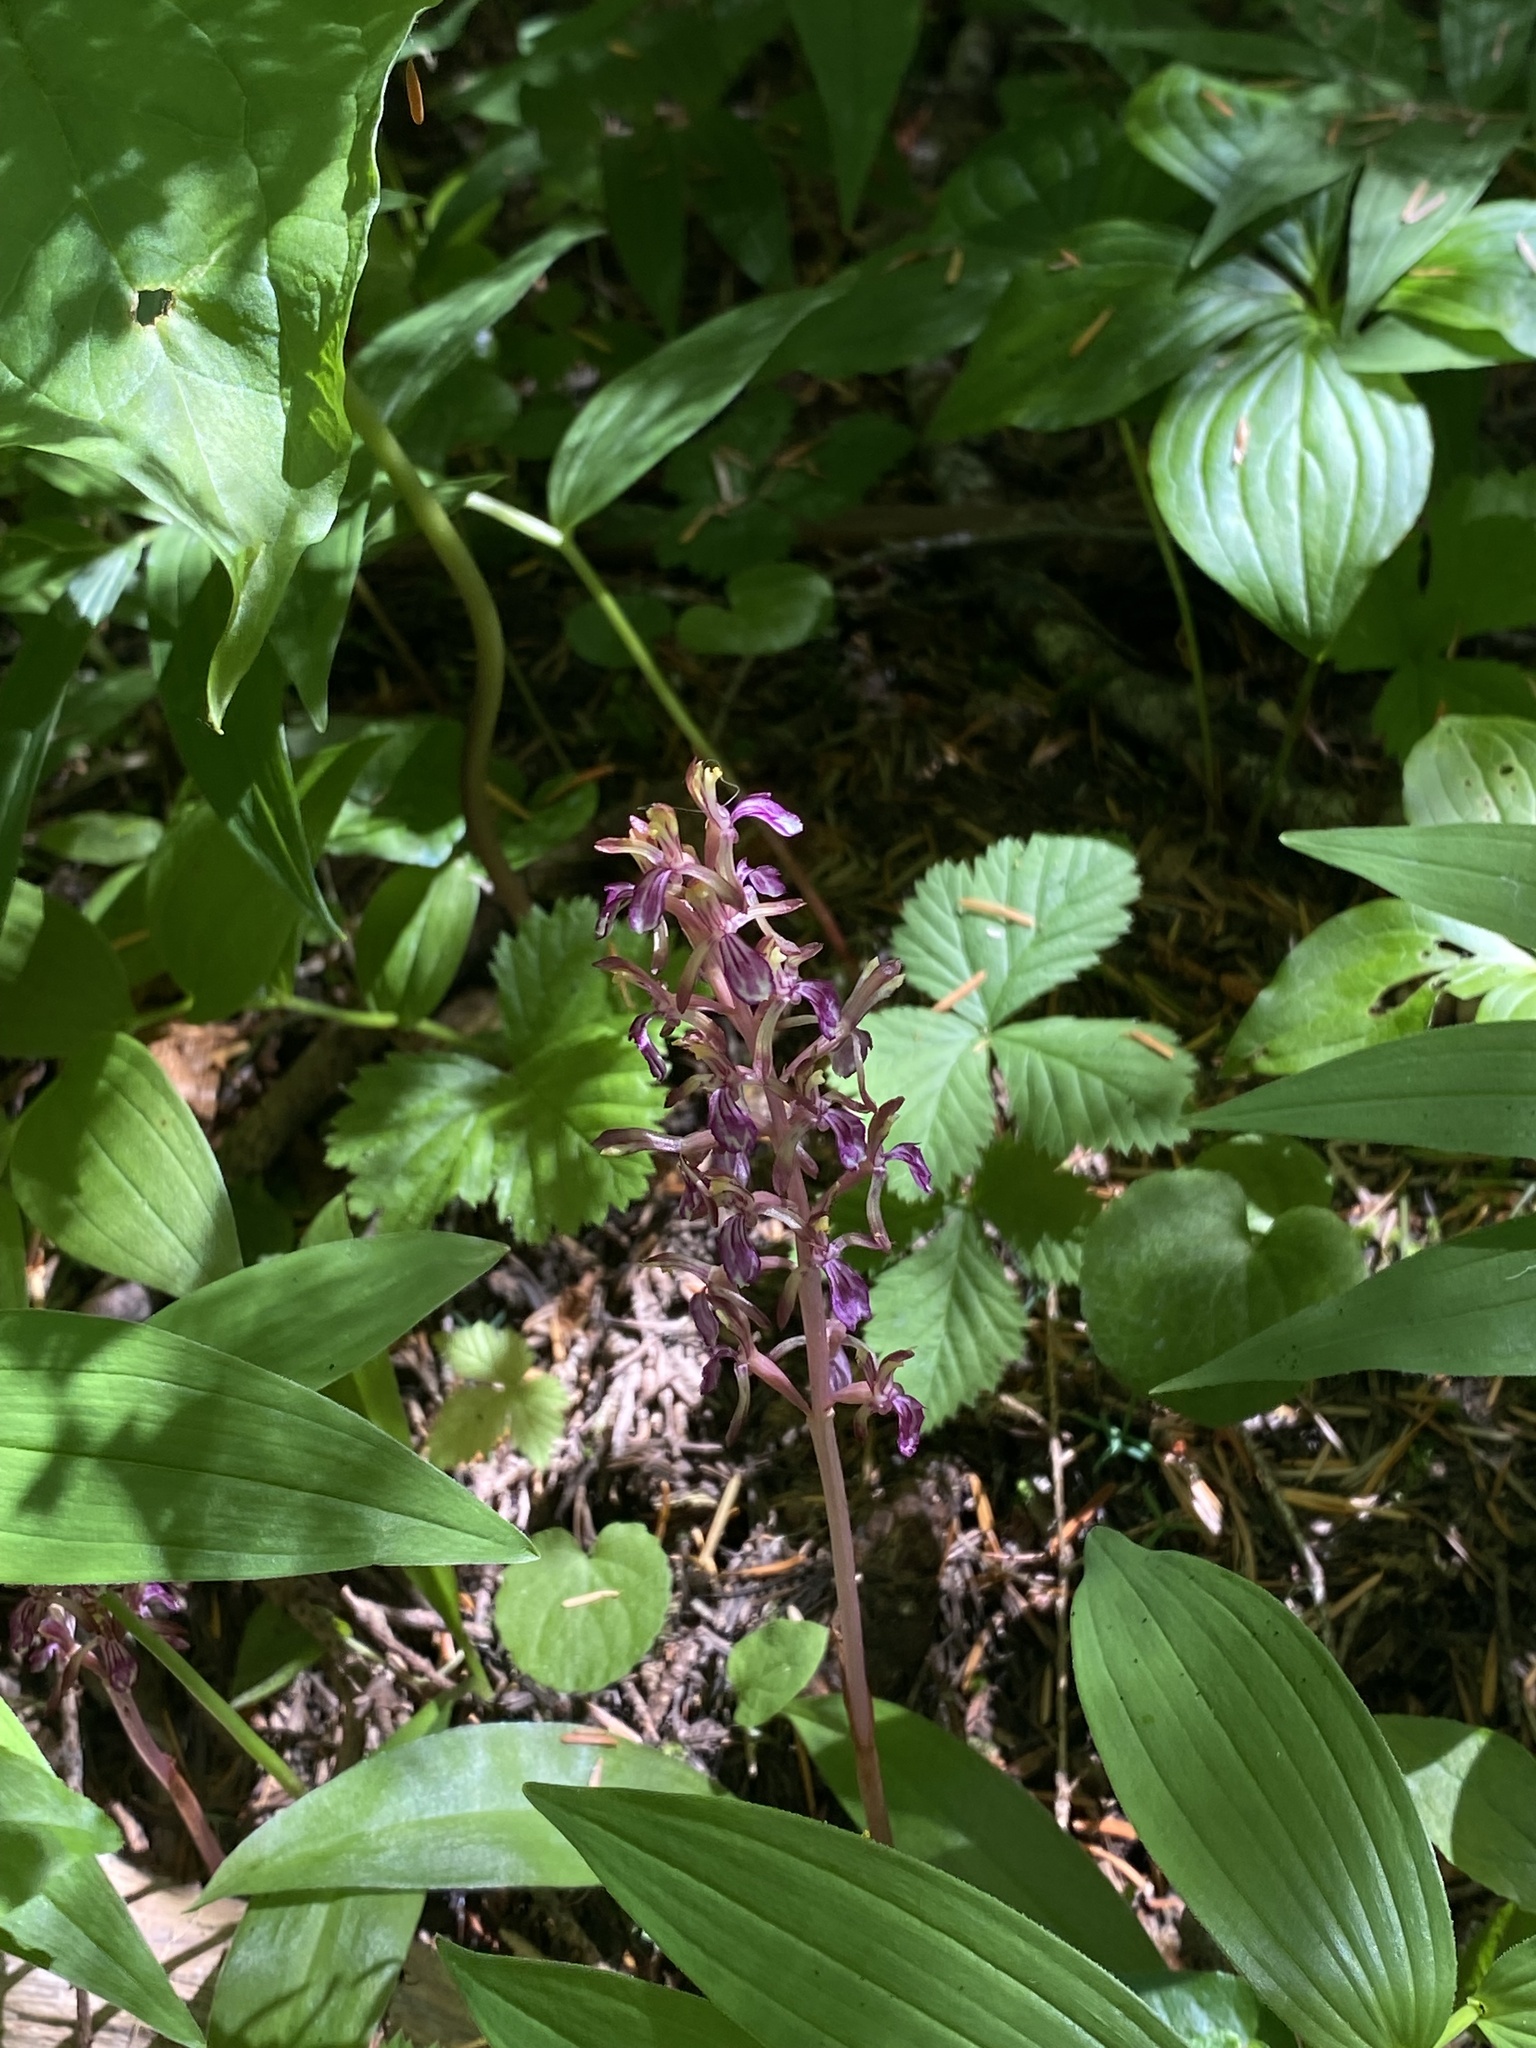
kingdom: Plantae
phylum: Tracheophyta
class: Liliopsida
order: Asparagales
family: Orchidaceae
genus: Corallorhiza
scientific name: Corallorhiza mertensiana
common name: Pacific coralroot
